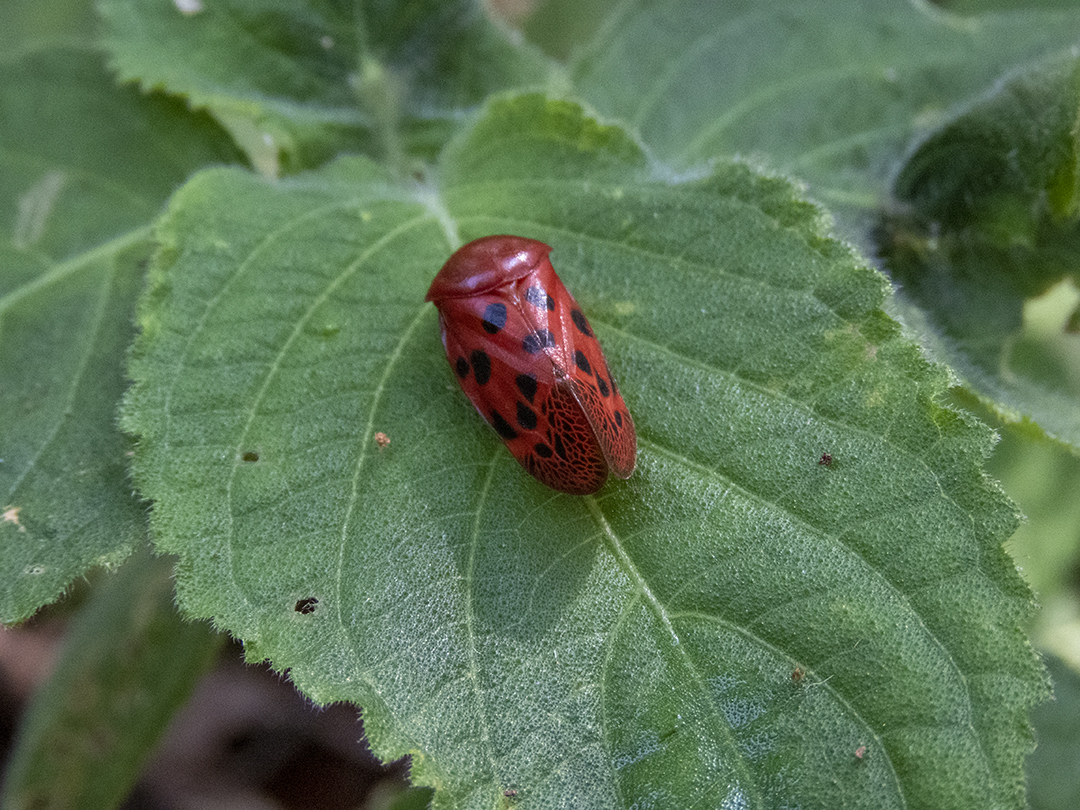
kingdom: Animalia
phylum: Arthropoda
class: Insecta
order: Hemiptera
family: Cercopidae
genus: Homalostethus
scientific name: Homalostethus tabulatus
